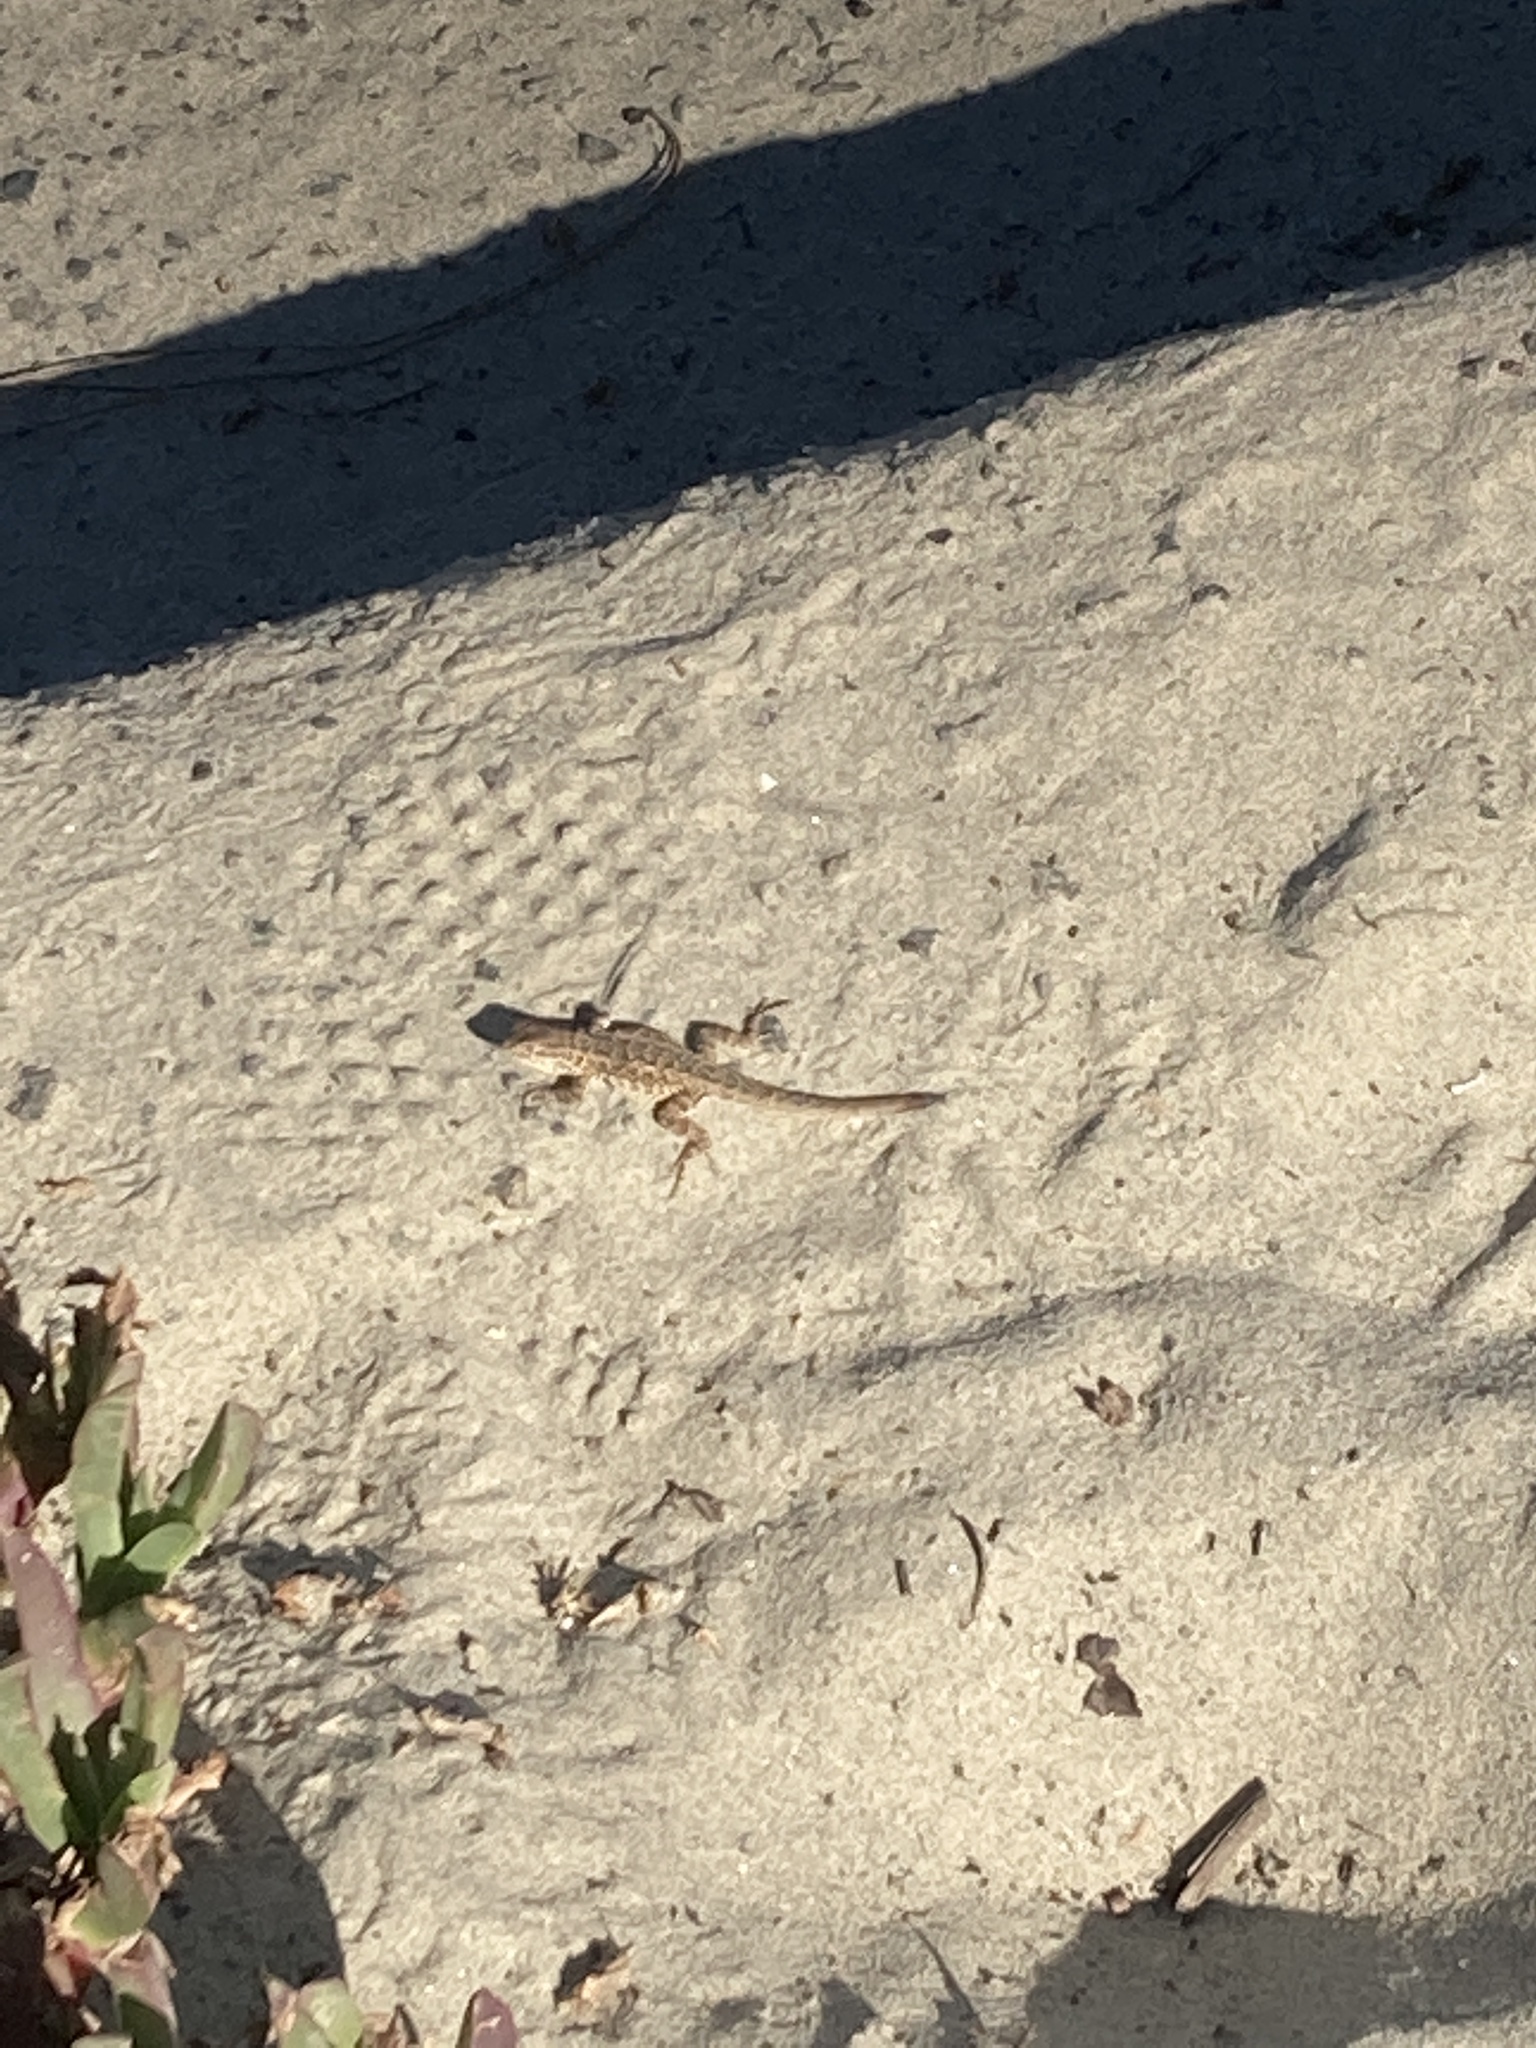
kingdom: Animalia
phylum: Chordata
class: Squamata
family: Phrynosomatidae
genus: Uta
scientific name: Uta stansburiana
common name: Side-blotched lizard
